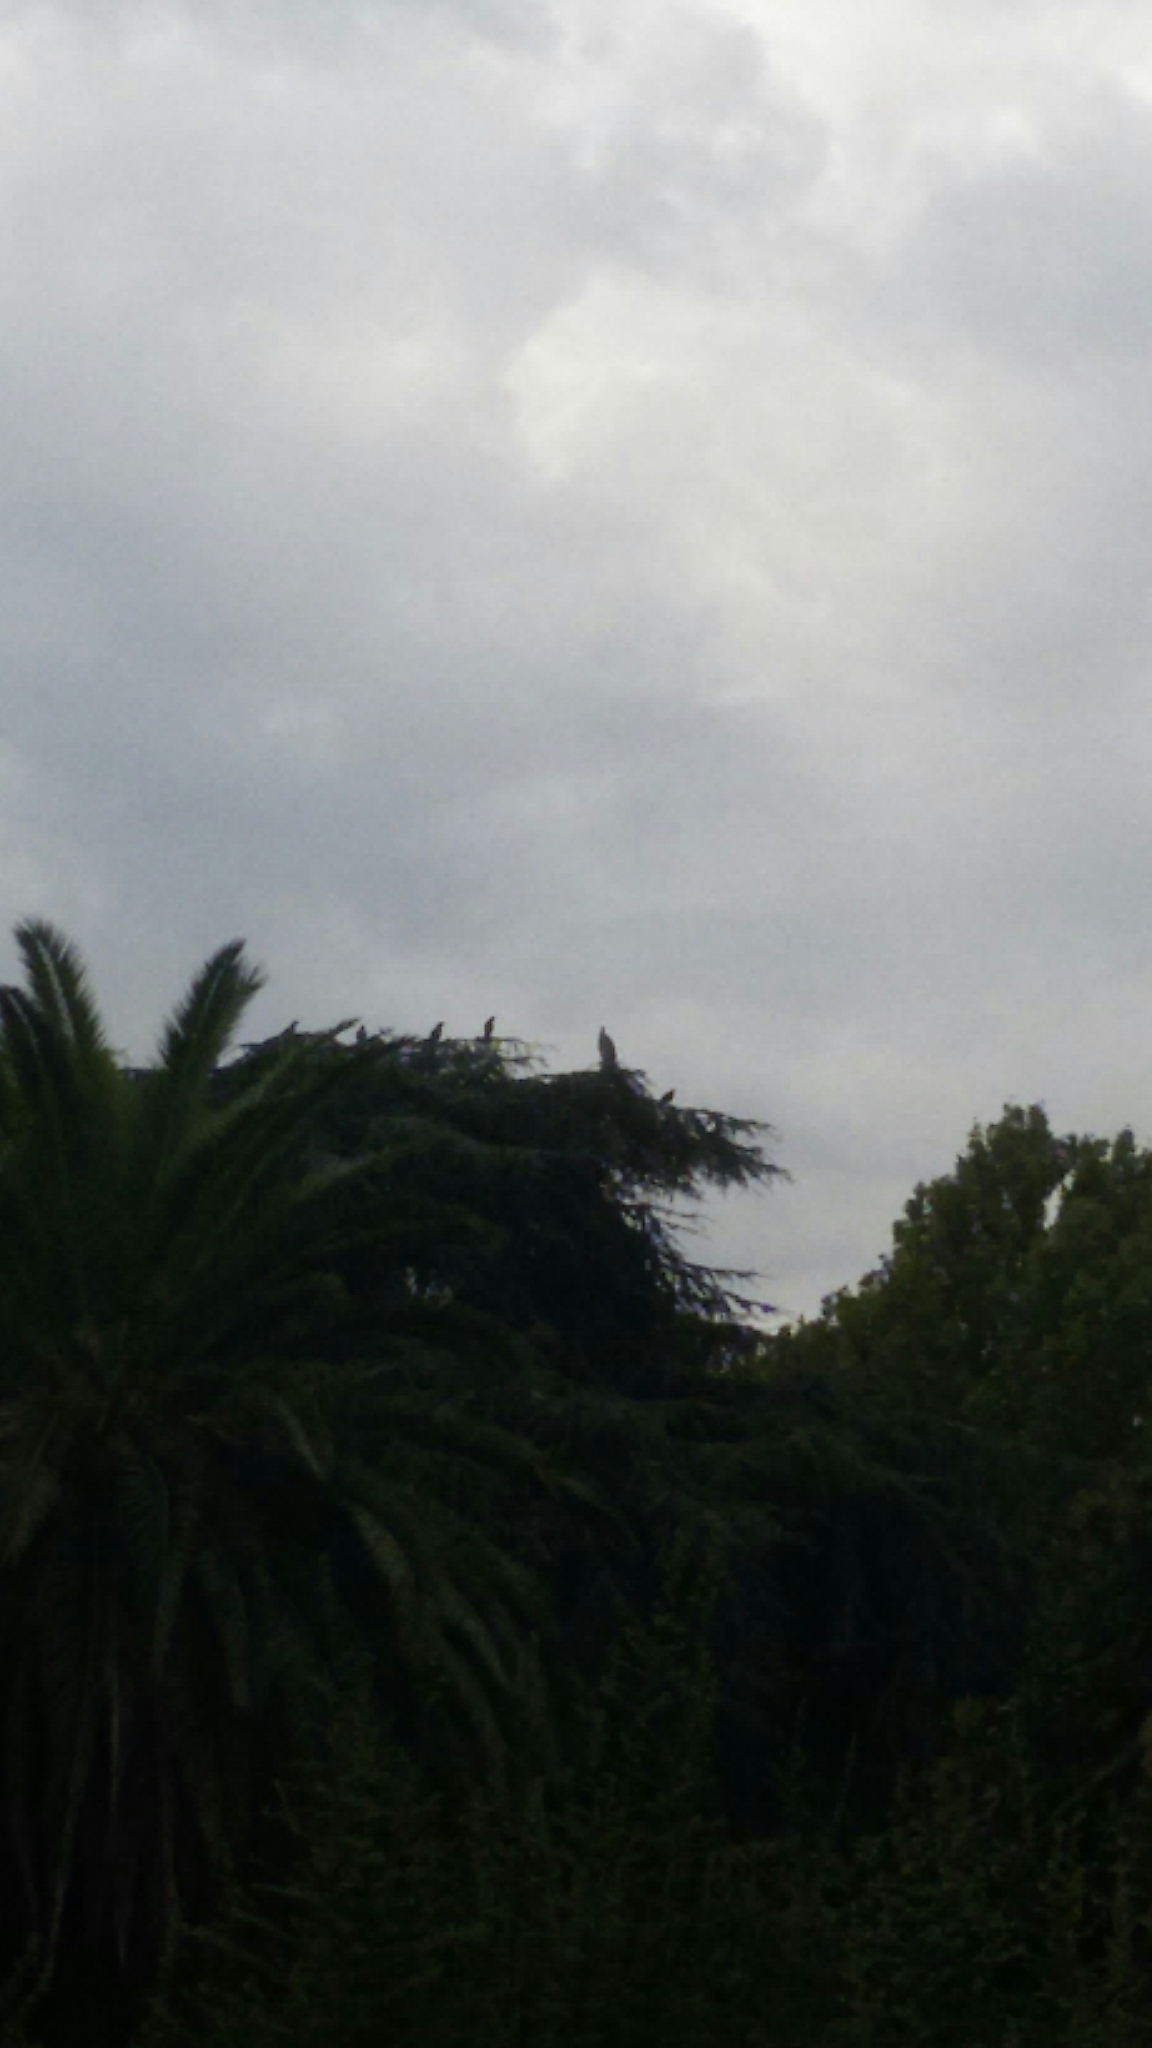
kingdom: Animalia
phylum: Chordata
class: Aves
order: Pelecaniformes
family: Ardeidae
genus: Ardea
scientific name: Ardea cinerea
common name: Grey heron
